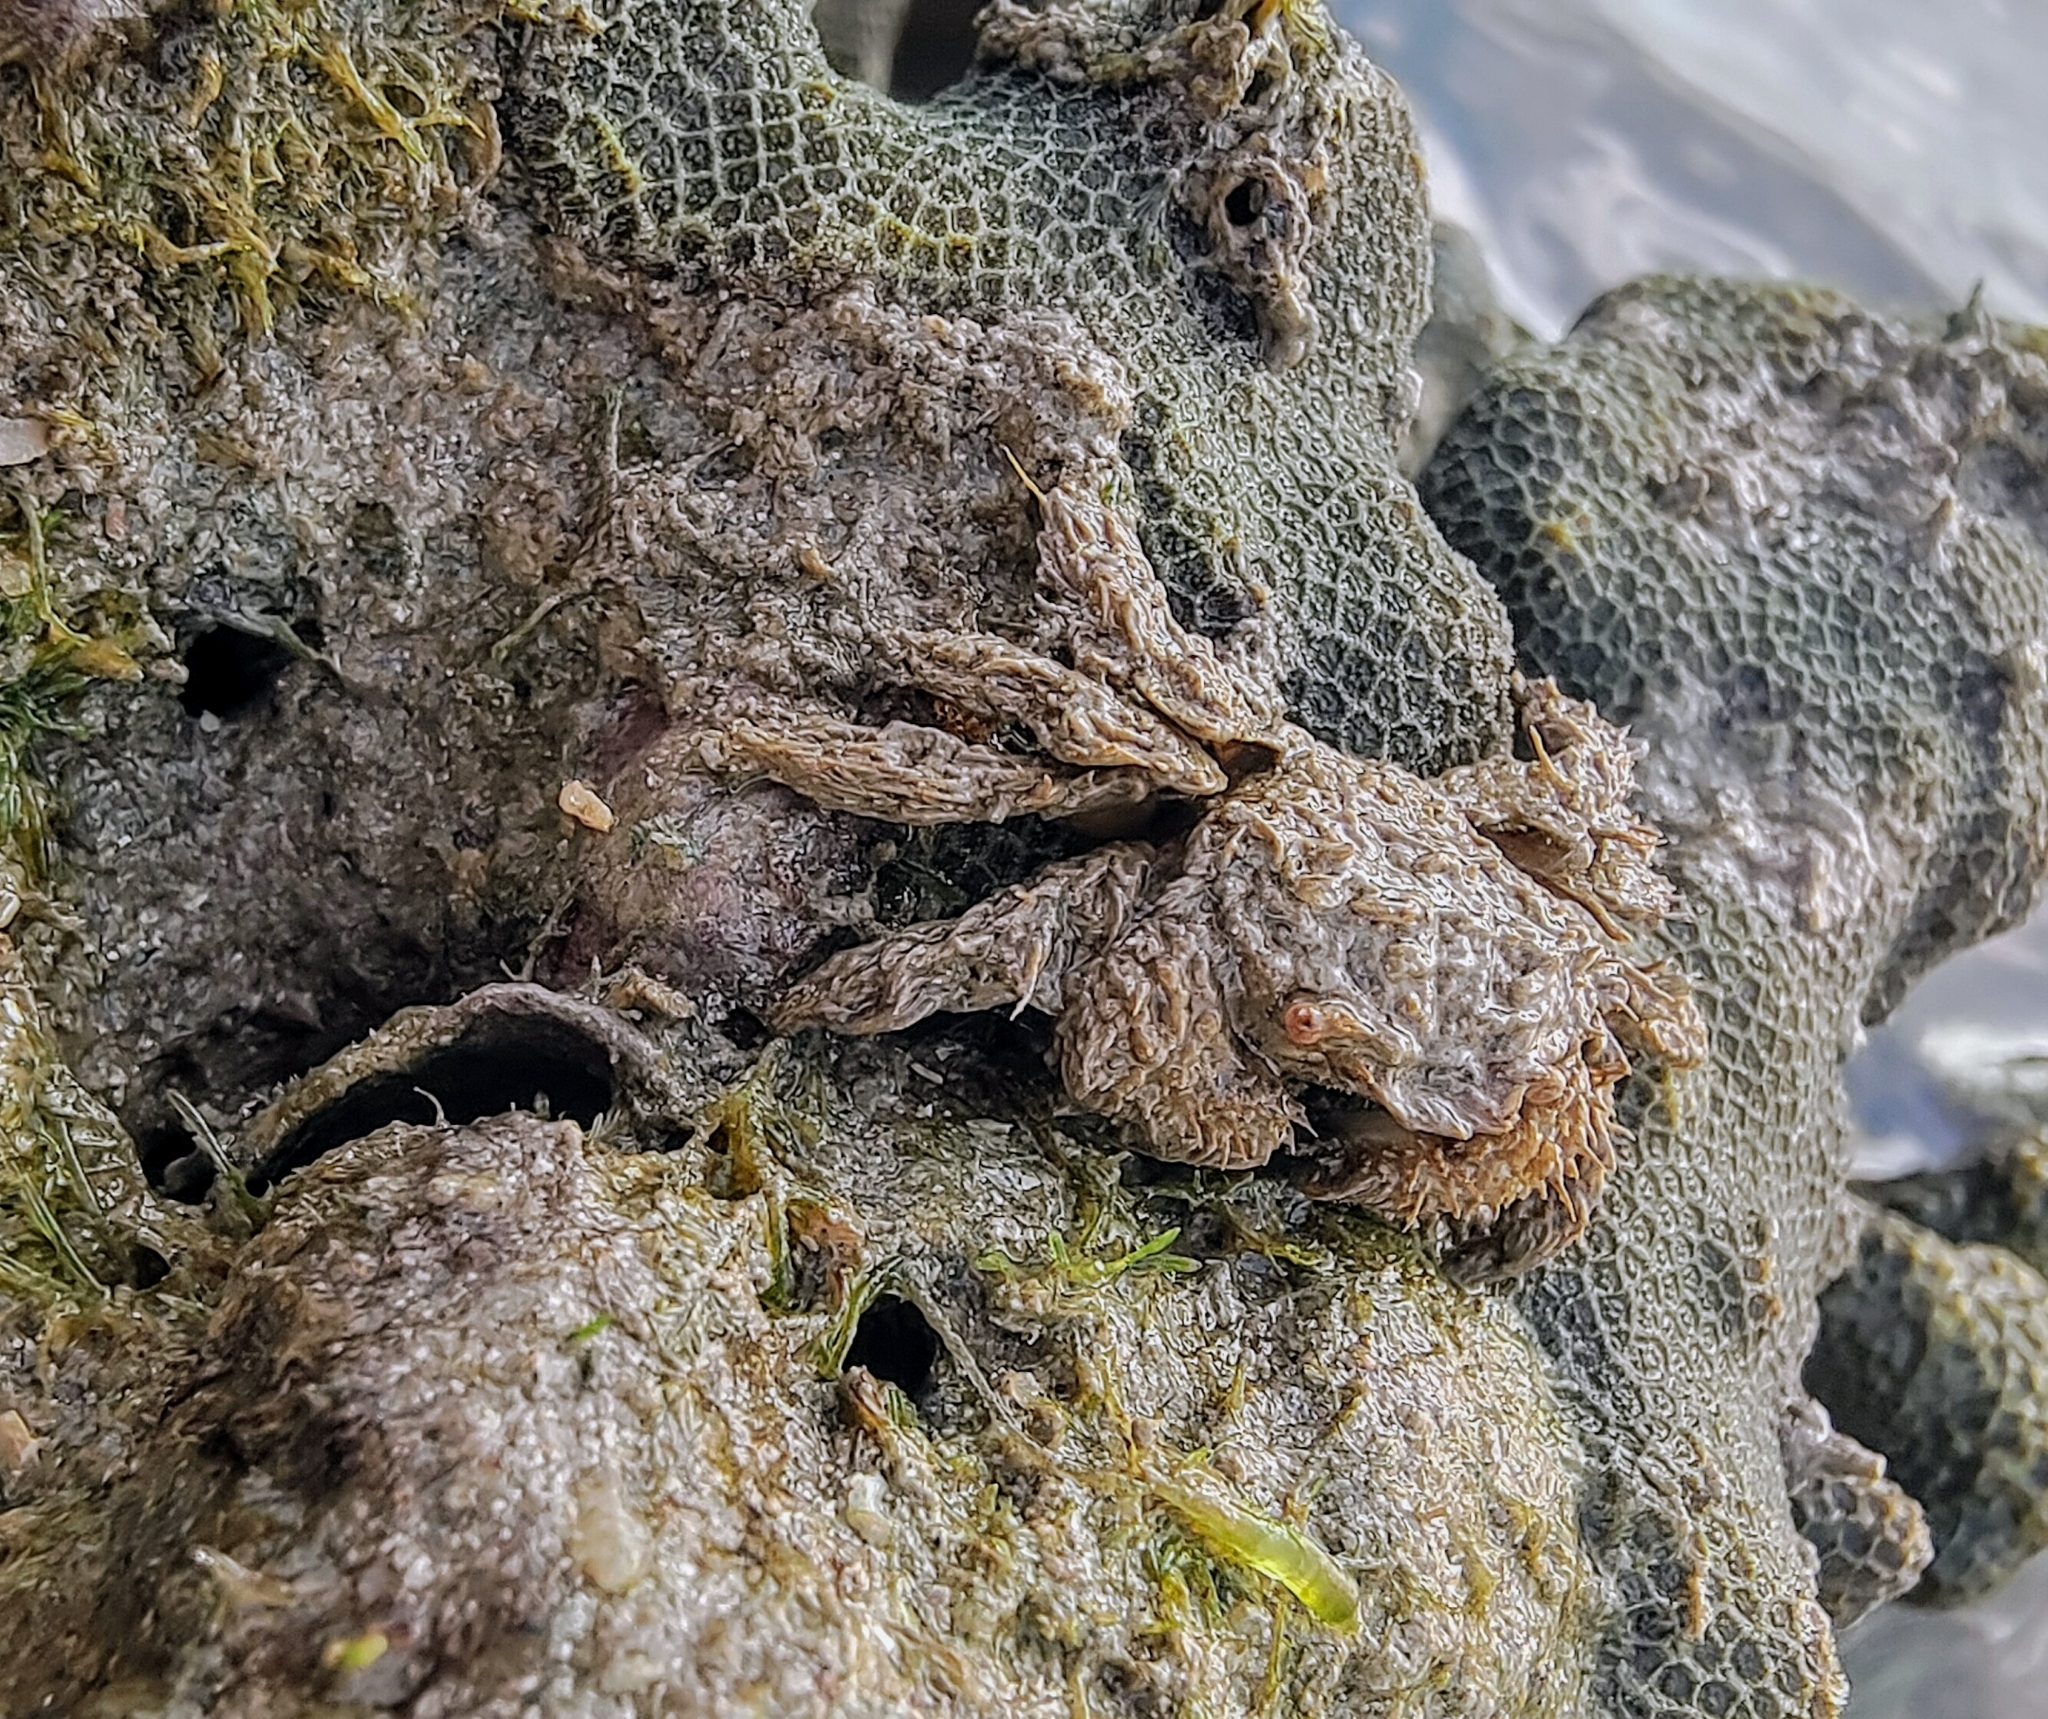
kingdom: Animalia
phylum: Arthropoda
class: Malacostraca
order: Decapoda
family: Pilumnidae
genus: Pilumnus
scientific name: Pilumnus vespertilio
